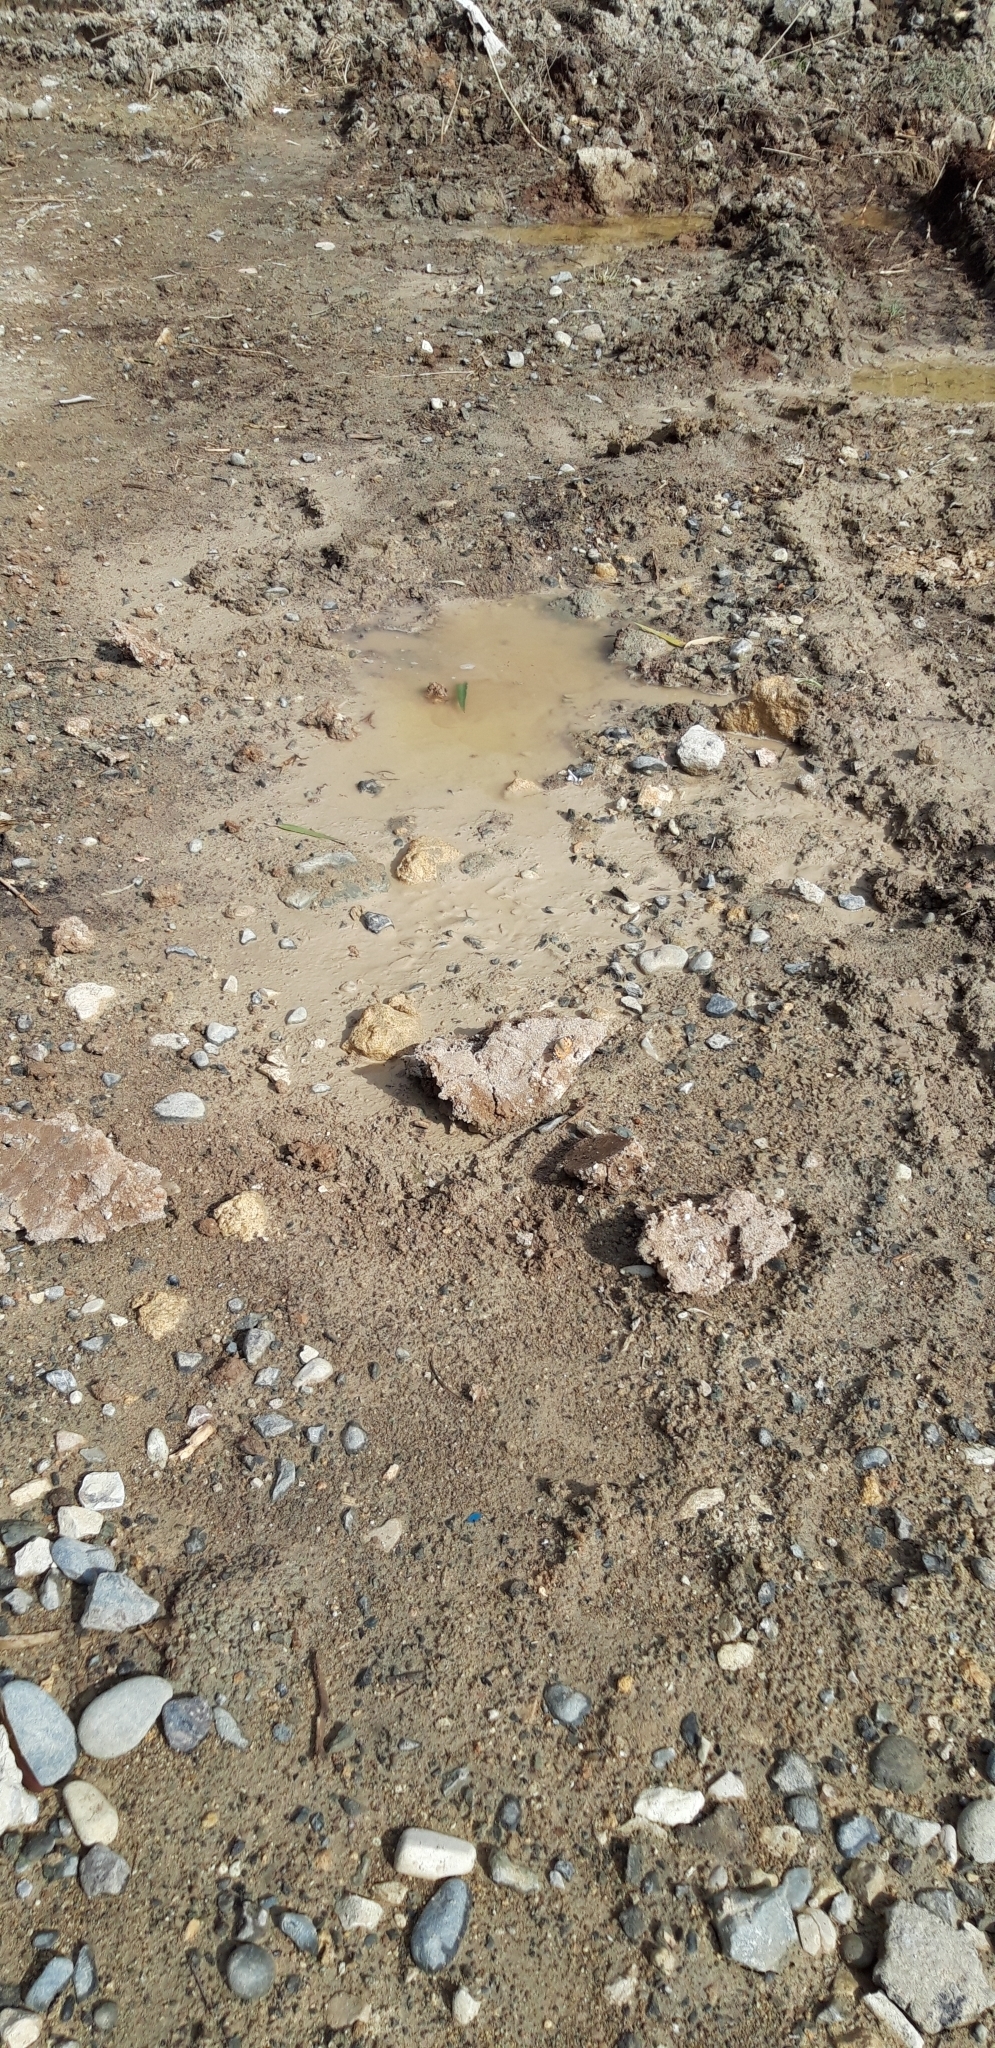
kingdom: Animalia
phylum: Arthropoda
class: Insecta
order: Lepidoptera
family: Nymphalidae
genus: Vanessa
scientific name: Vanessa cardui
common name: Painted lady
